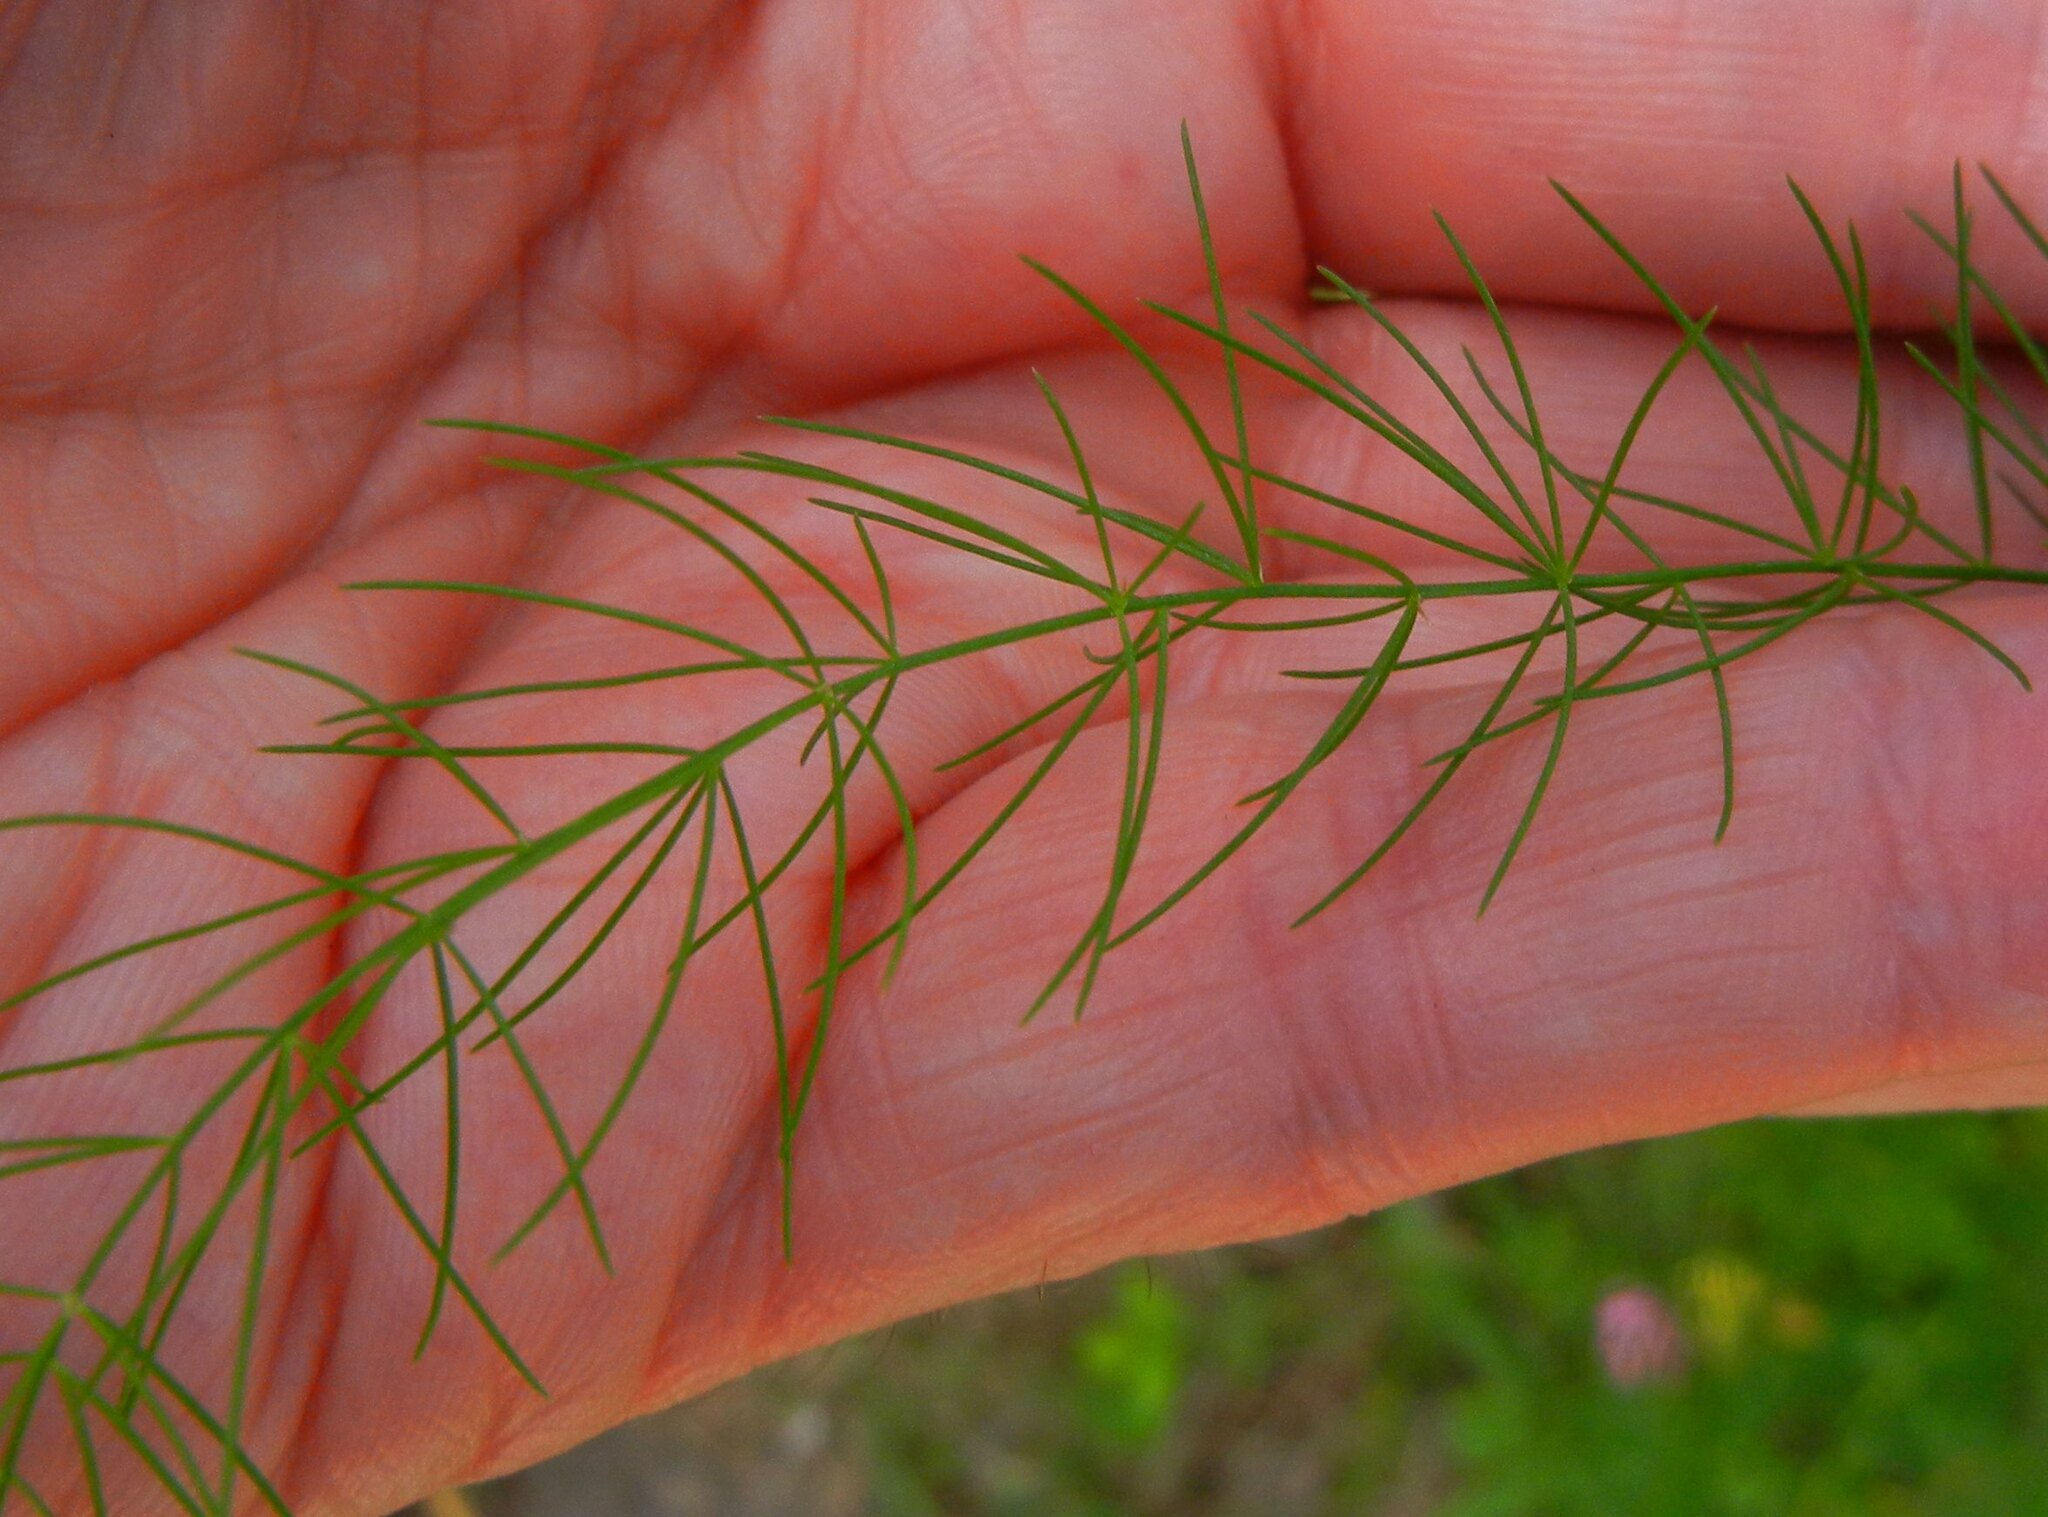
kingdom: Plantae
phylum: Tracheophyta
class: Liliopsida
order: Asparagales
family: Asparagaceae
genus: Asparagus
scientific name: Asparagus officinalis
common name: Garden asparagus
